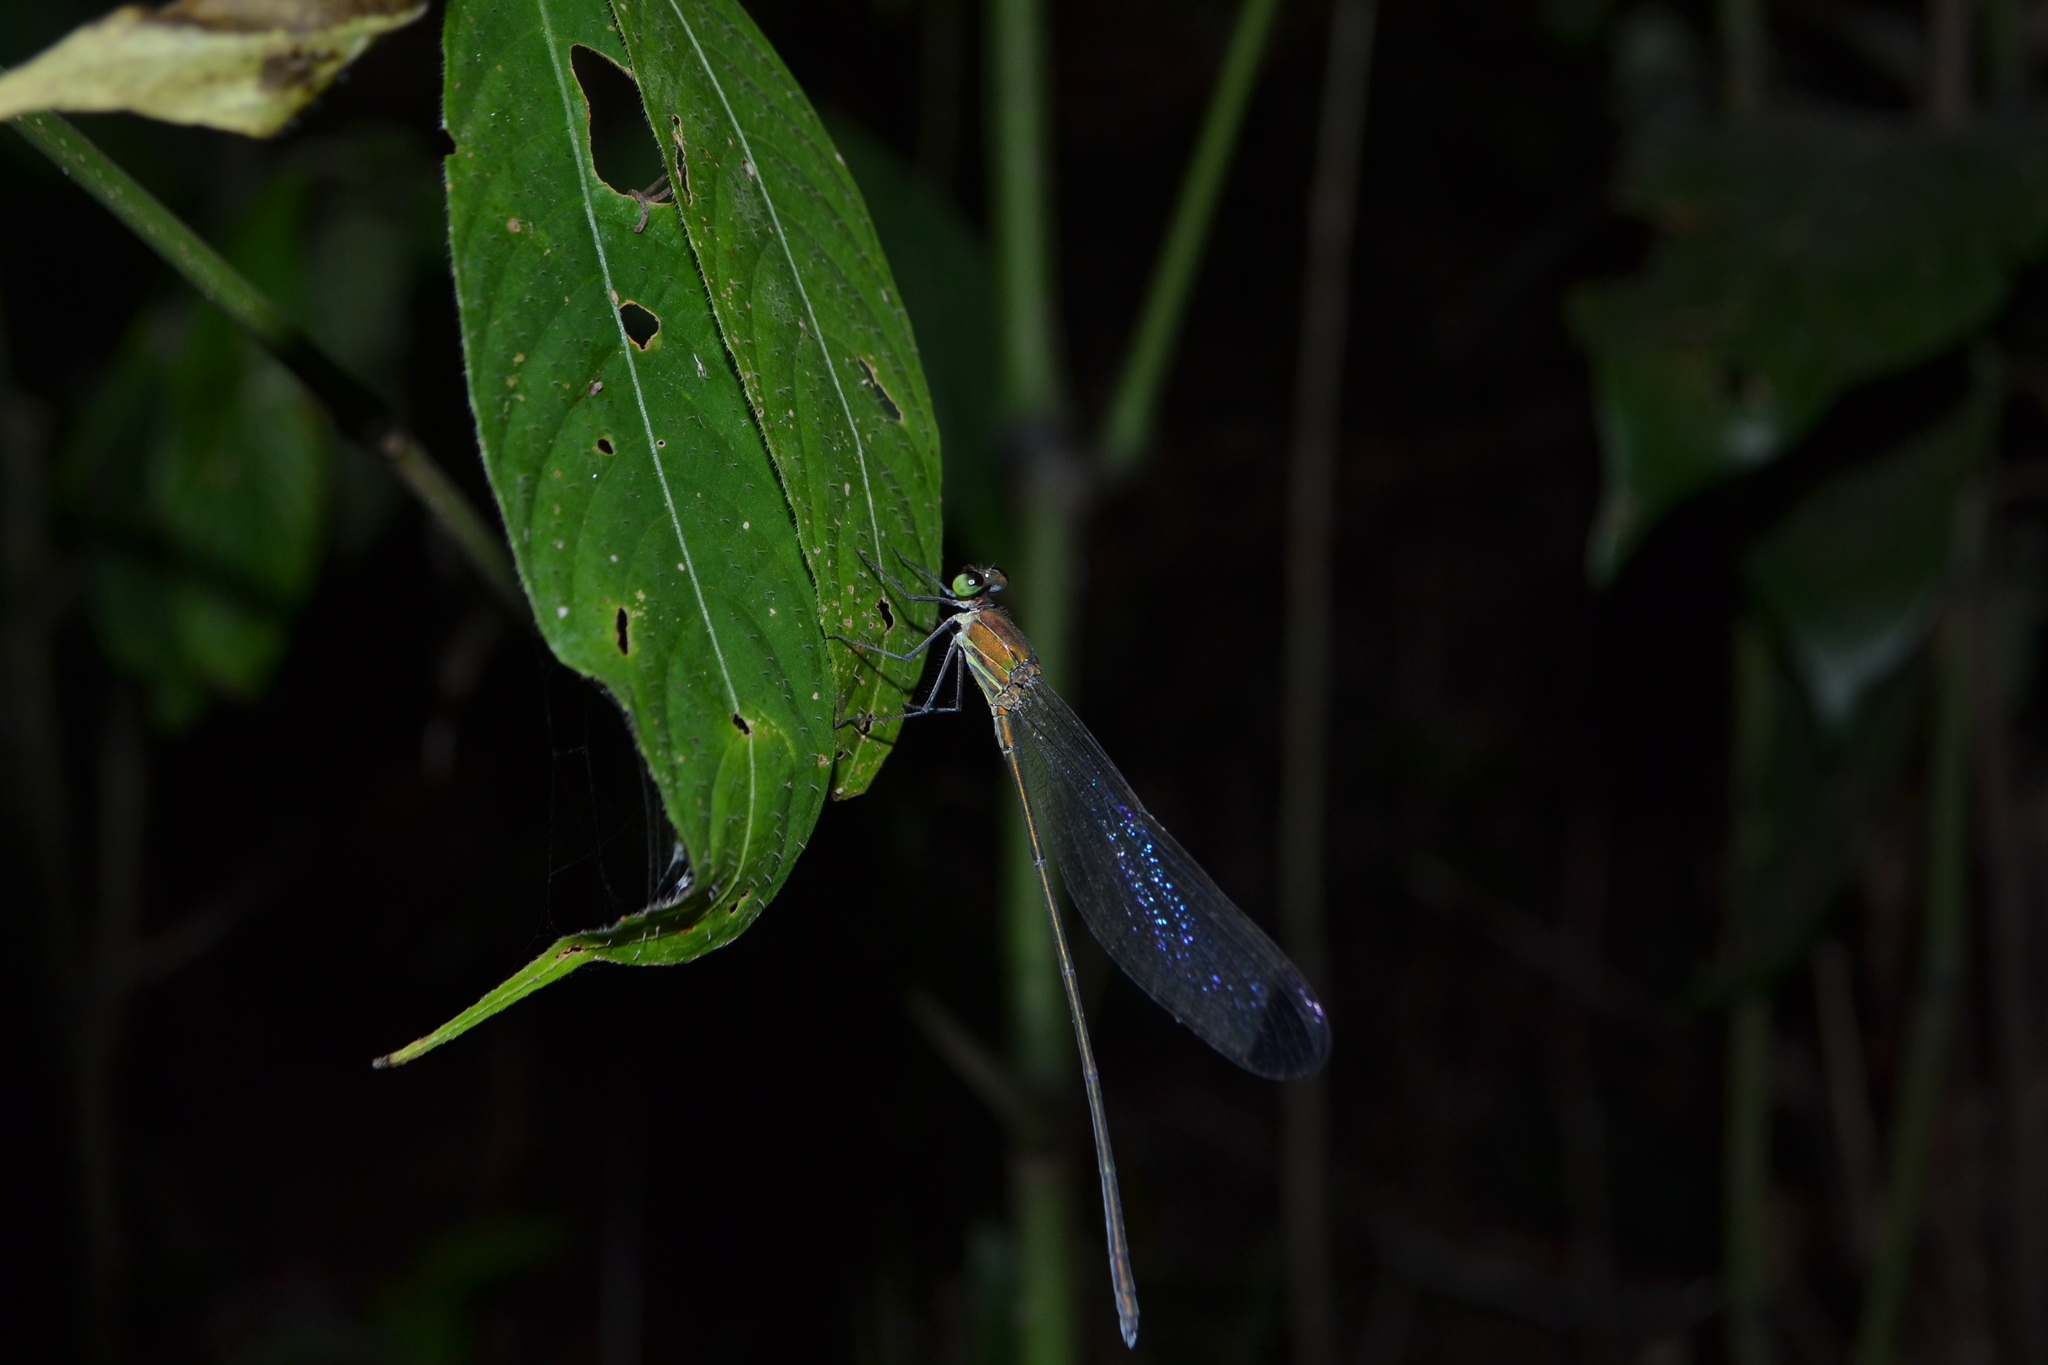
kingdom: Animalia
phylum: Arthropoda
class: Insecta
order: Odonata
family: Calopterygidae
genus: Vestalis
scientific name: Vestalis apicalis
